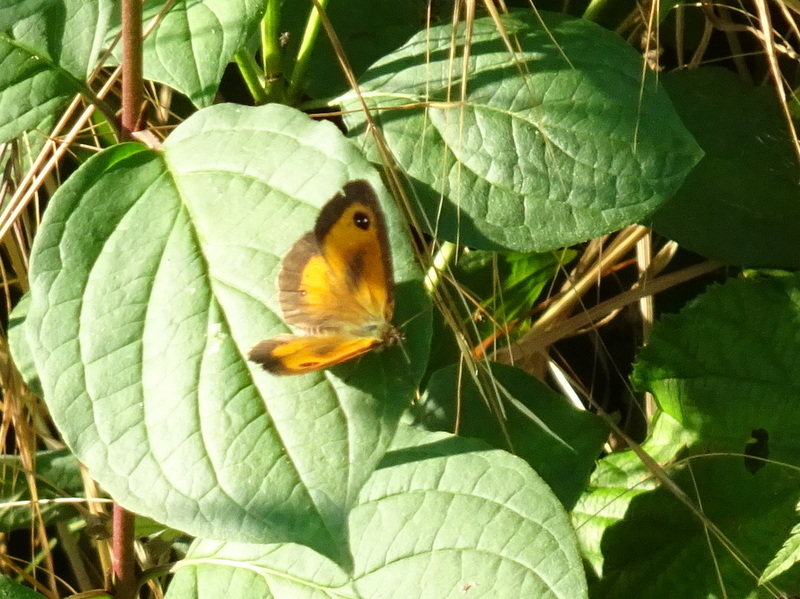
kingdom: Animalia
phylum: Arthropoda
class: Insecta
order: Lepidoptera
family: Nymphalidae
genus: Pyronia
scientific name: Pyronia tithonus
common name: Gatekeeper
